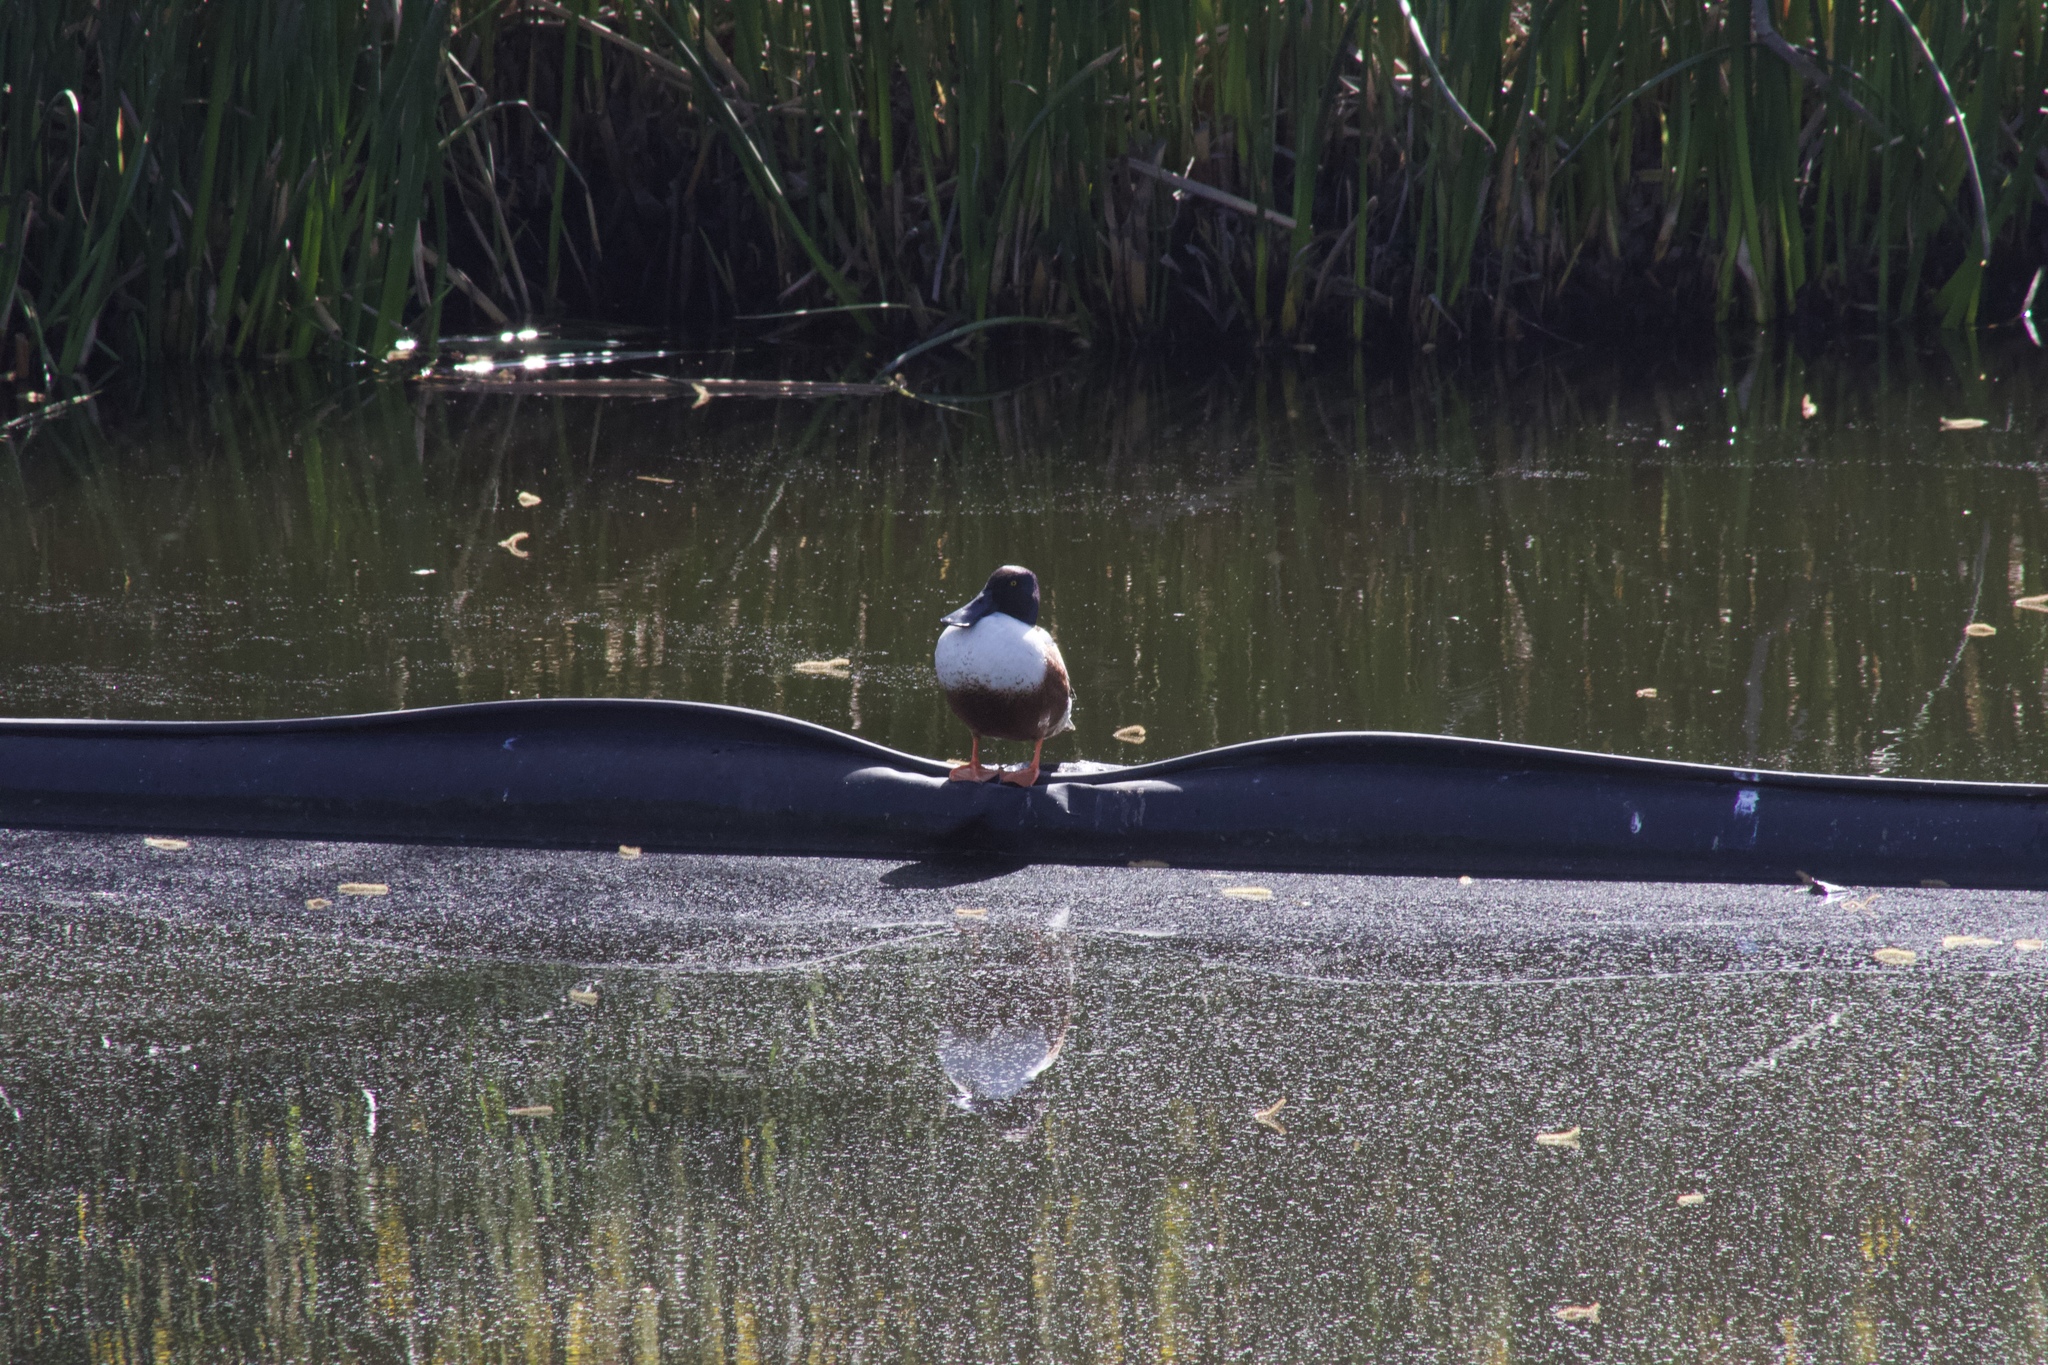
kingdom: Animalia
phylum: Chordata
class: Aves
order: Anseriformes
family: Anatidae
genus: Spatula
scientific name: Spatula clypeata
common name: Northern shoveler
